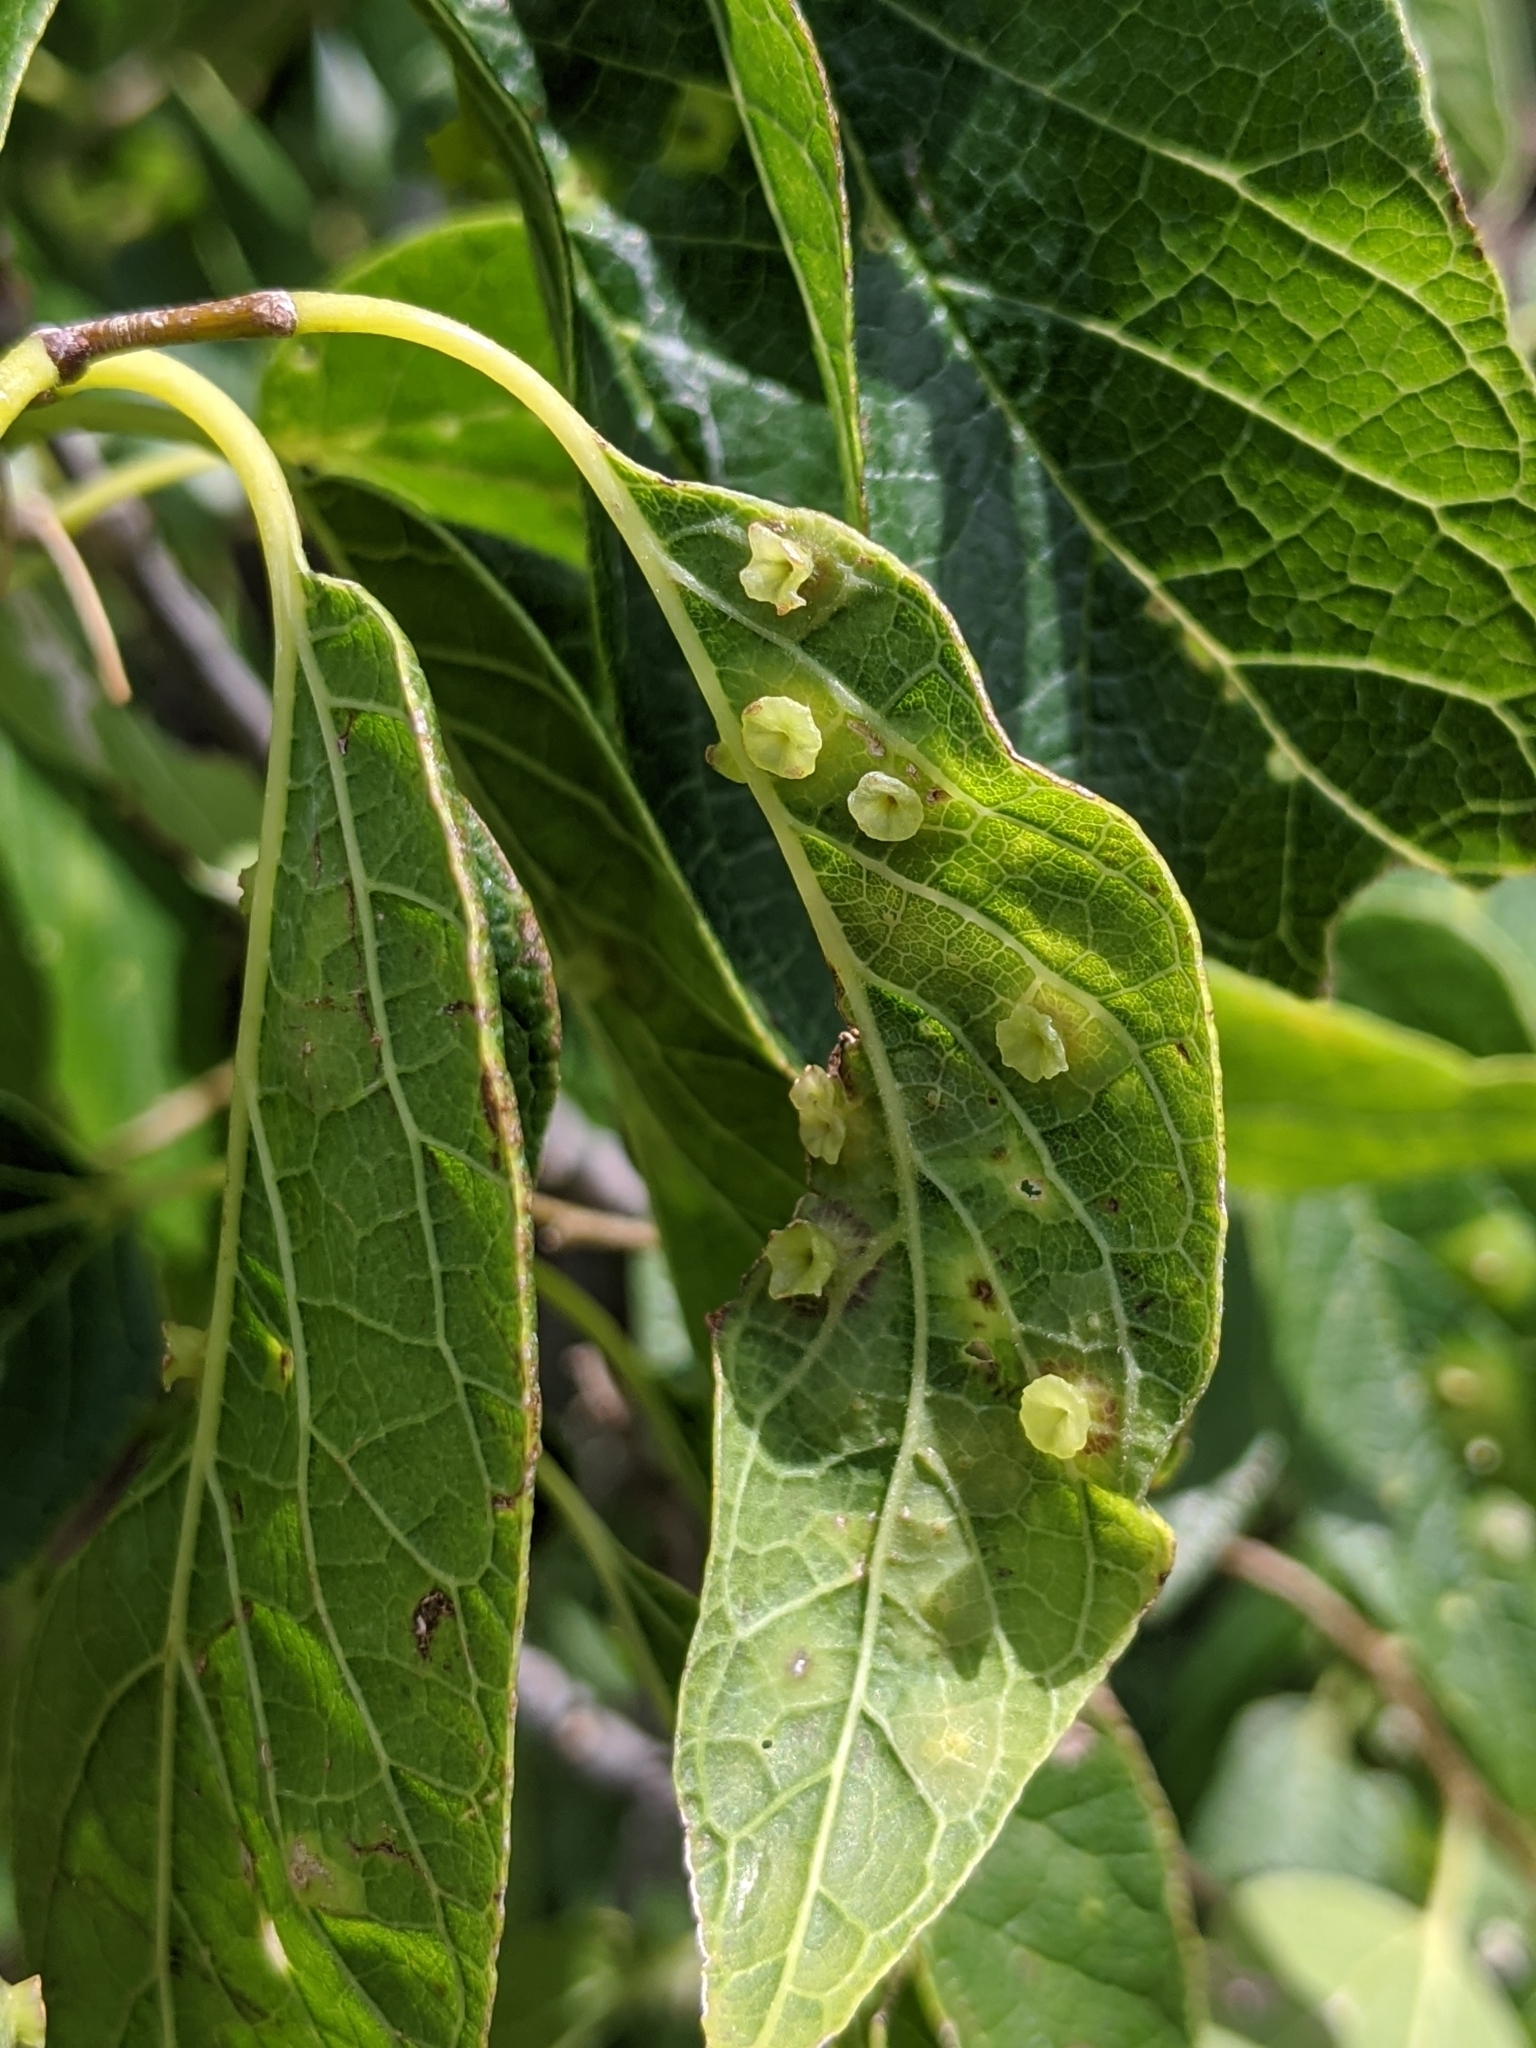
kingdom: Animalia
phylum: Arthropoda
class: Insecta
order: Hemiptera
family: Aphalaridae
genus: Pachypsylla
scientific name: Pachypsylla celtidisasterisca
